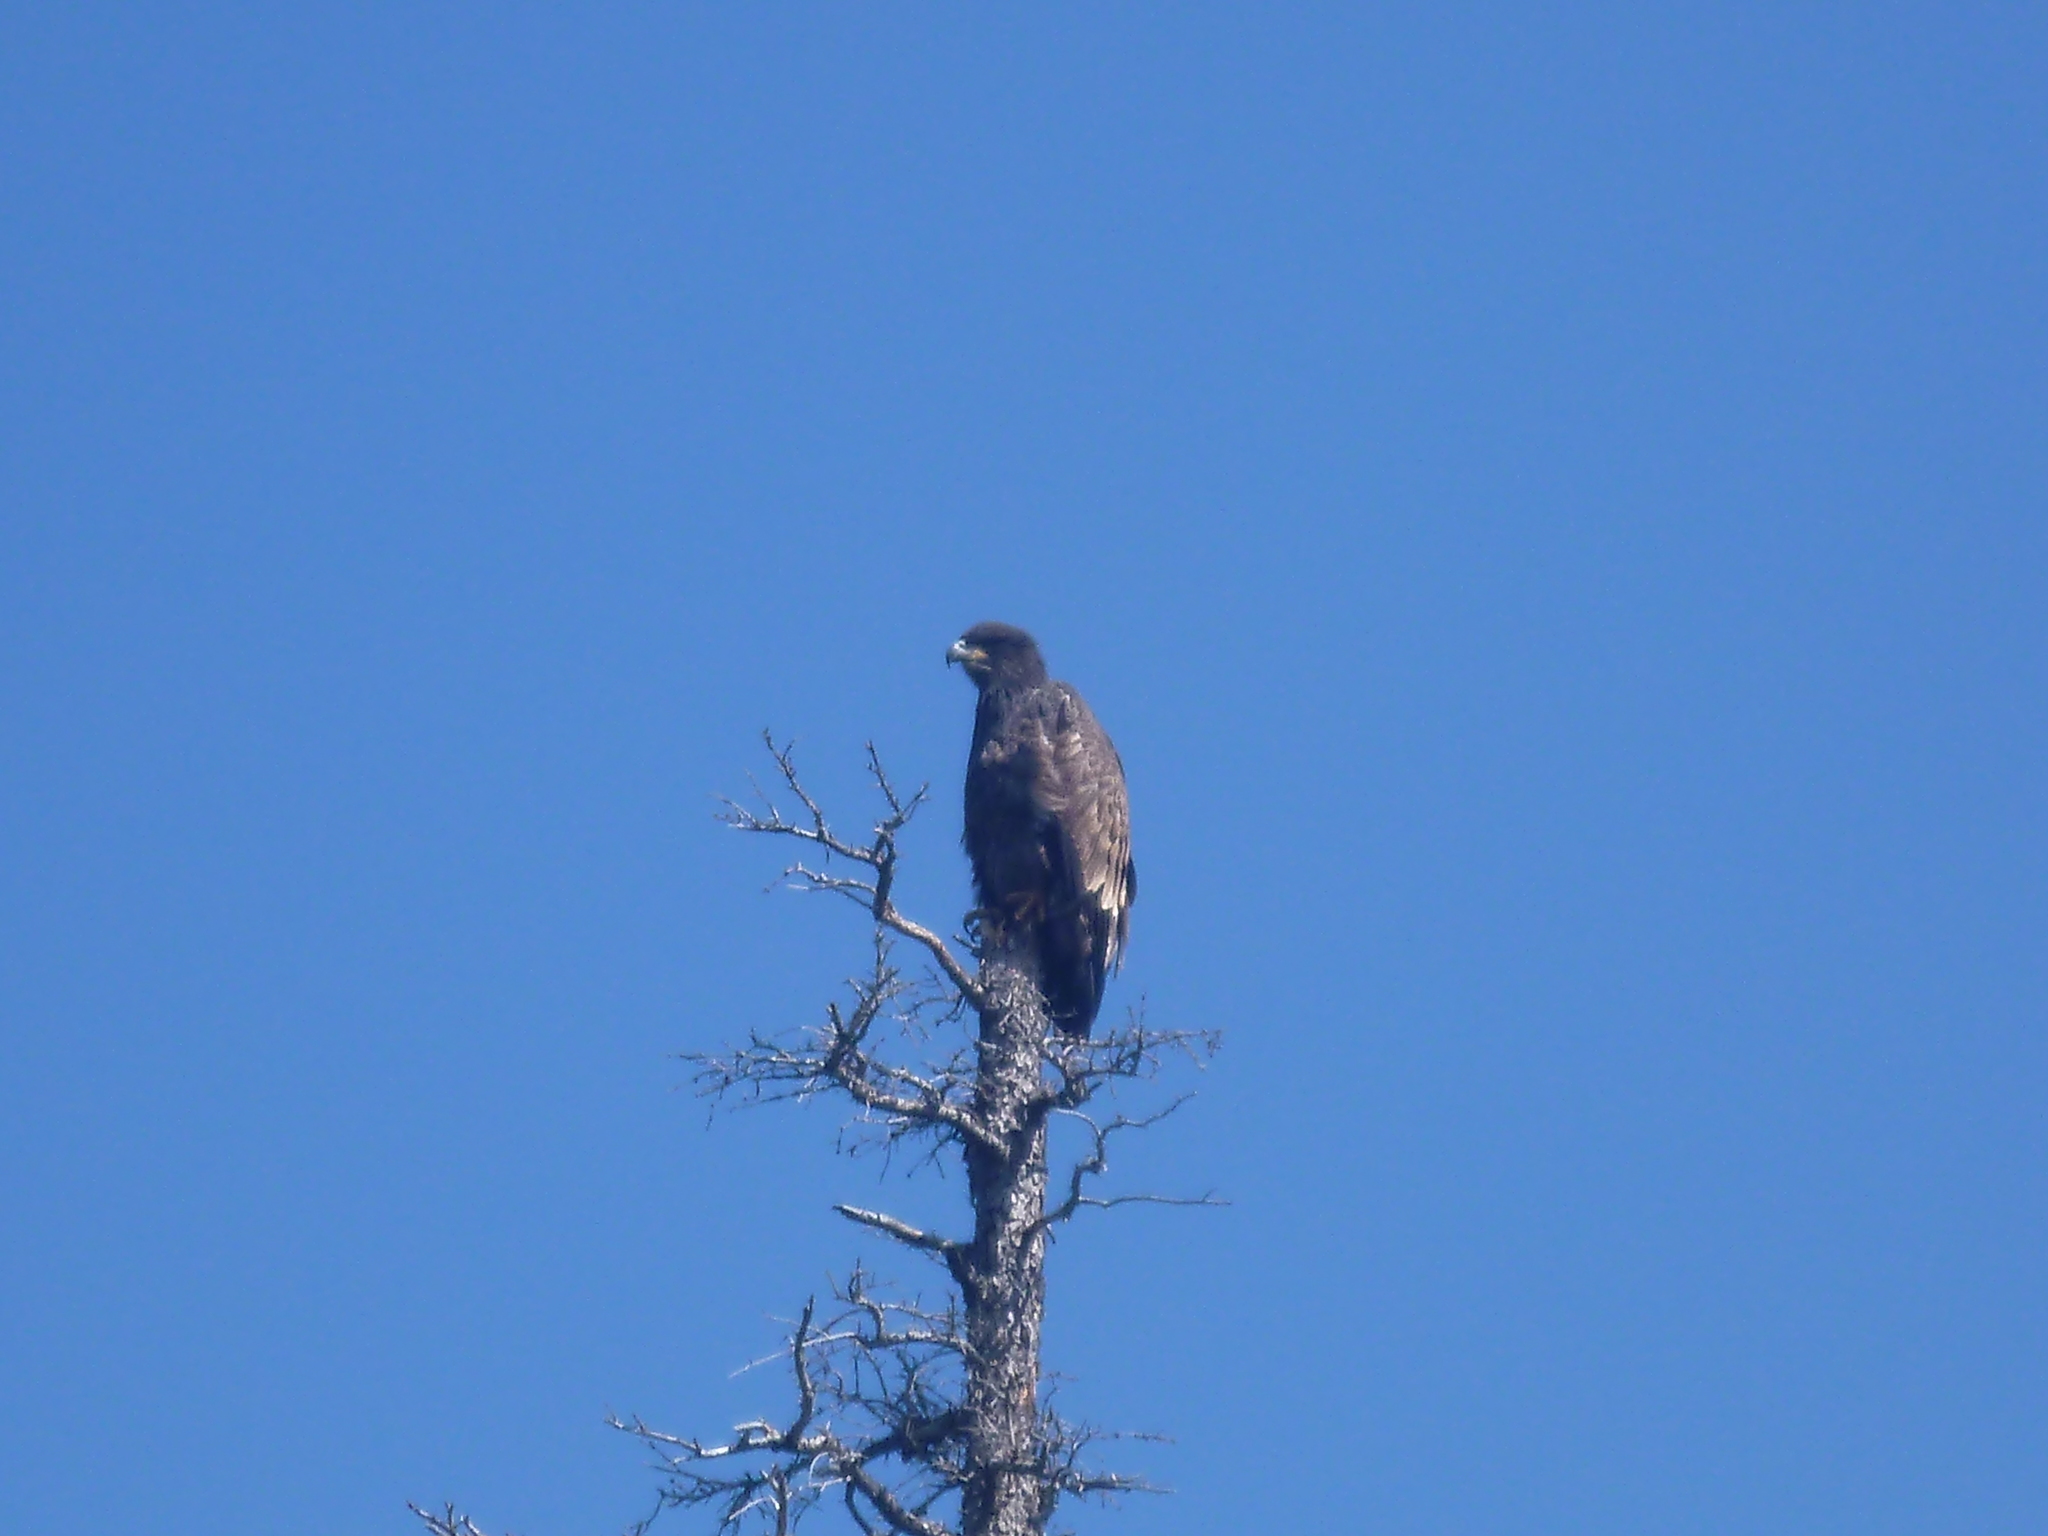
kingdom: Animalia
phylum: Chordata
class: Aves
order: Accipitriformes
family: Accipitridae
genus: Haliaeetus
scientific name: Haliaeetus leucocephalus
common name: Bald eagle
